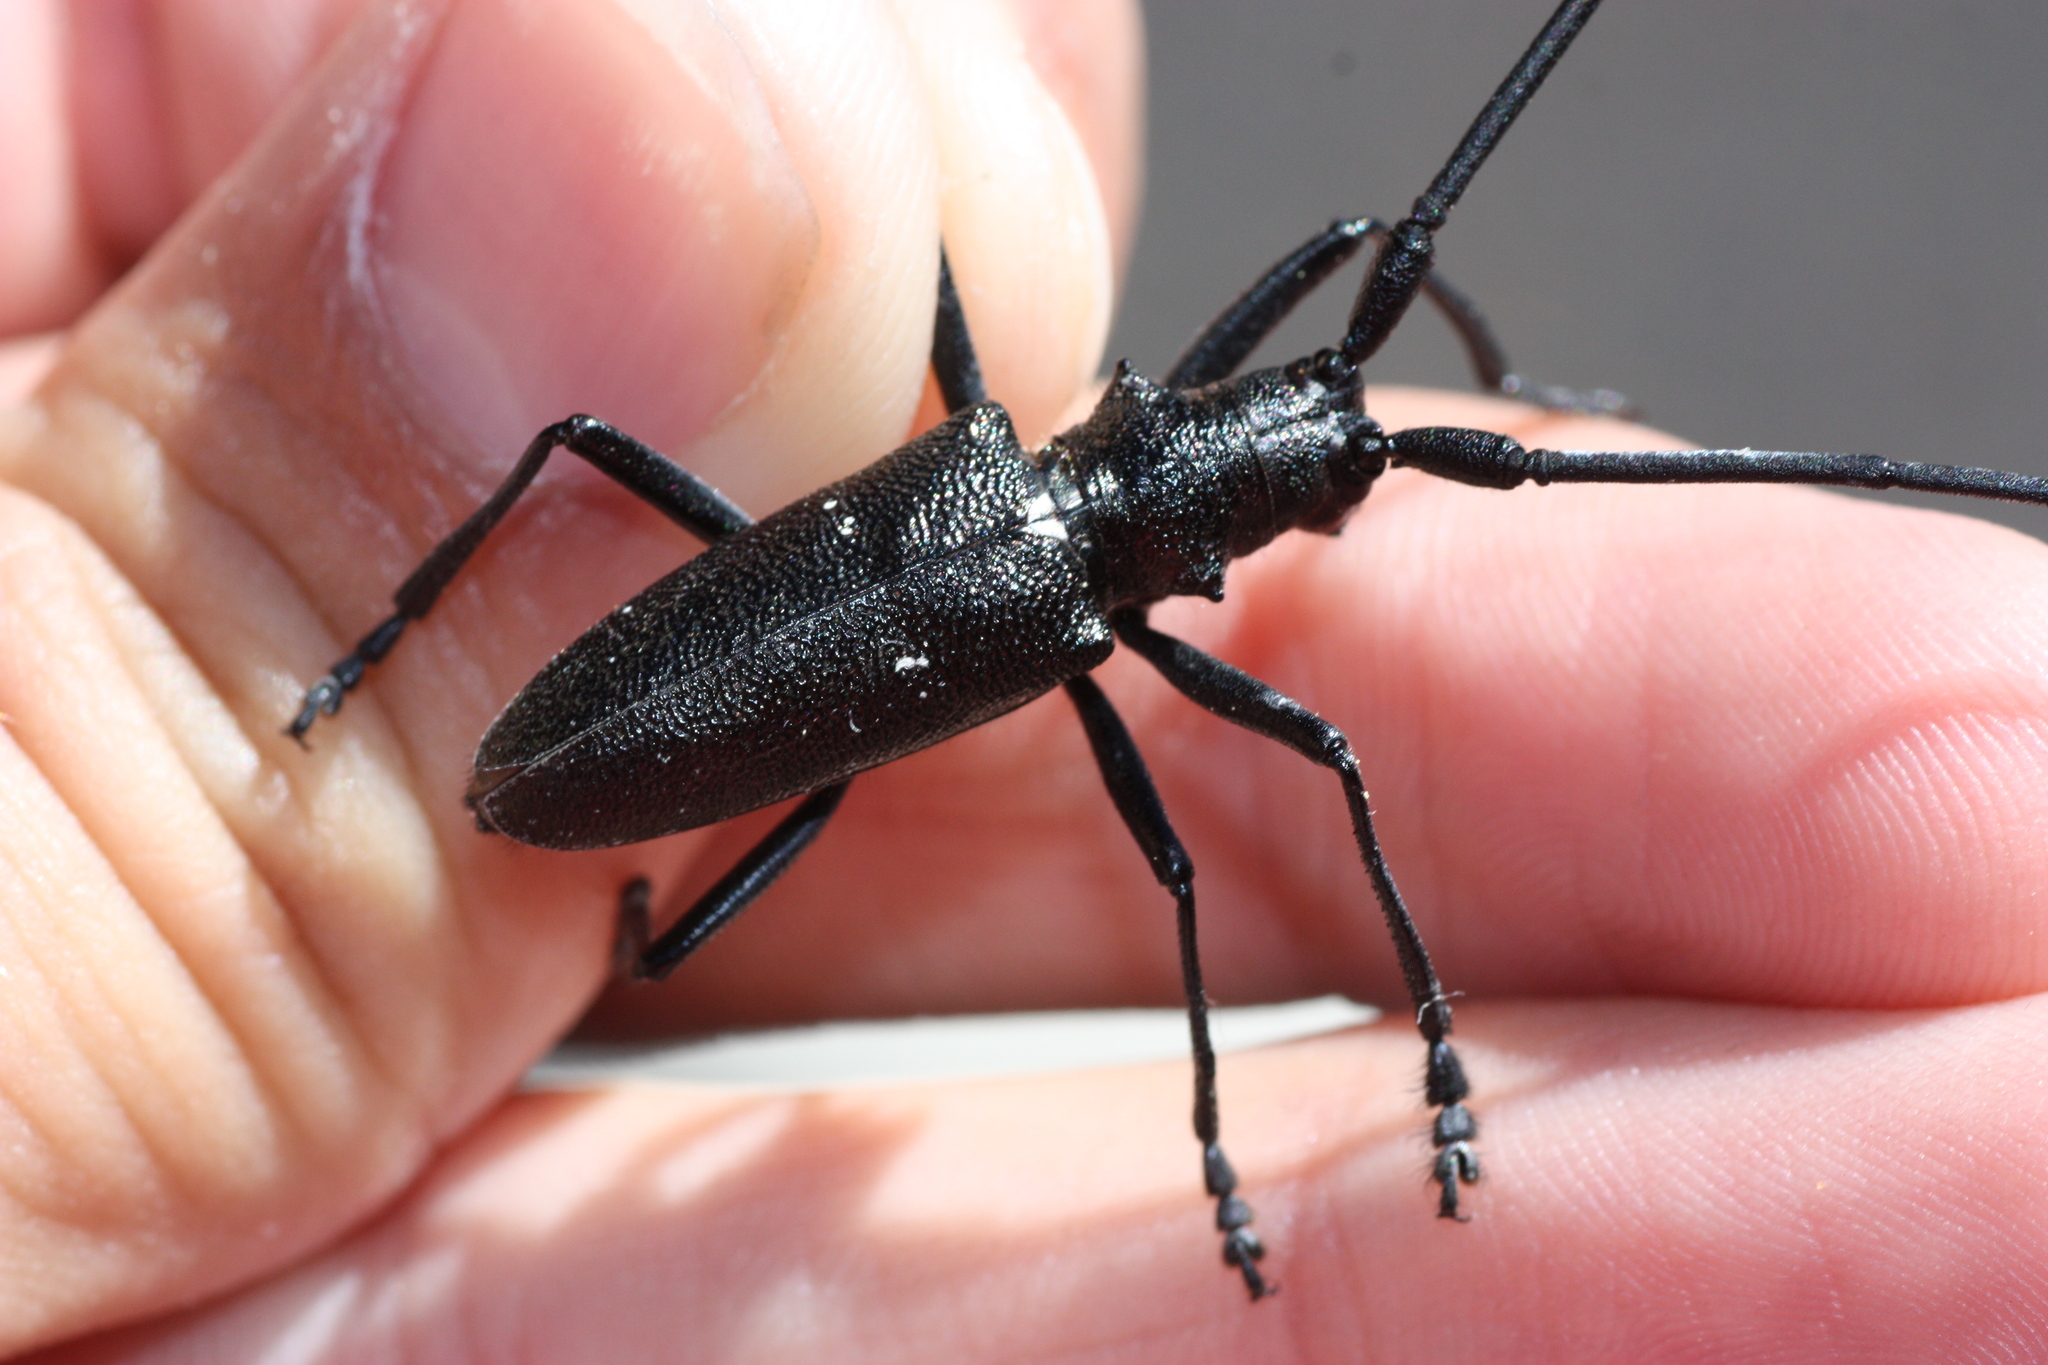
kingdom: Animalia
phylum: Arthropoda
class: Insecta
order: Coleoptera
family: Cerambycidae
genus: Monochamus
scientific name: Monochamus scutellatus
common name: White-spotted sawyer beetle
